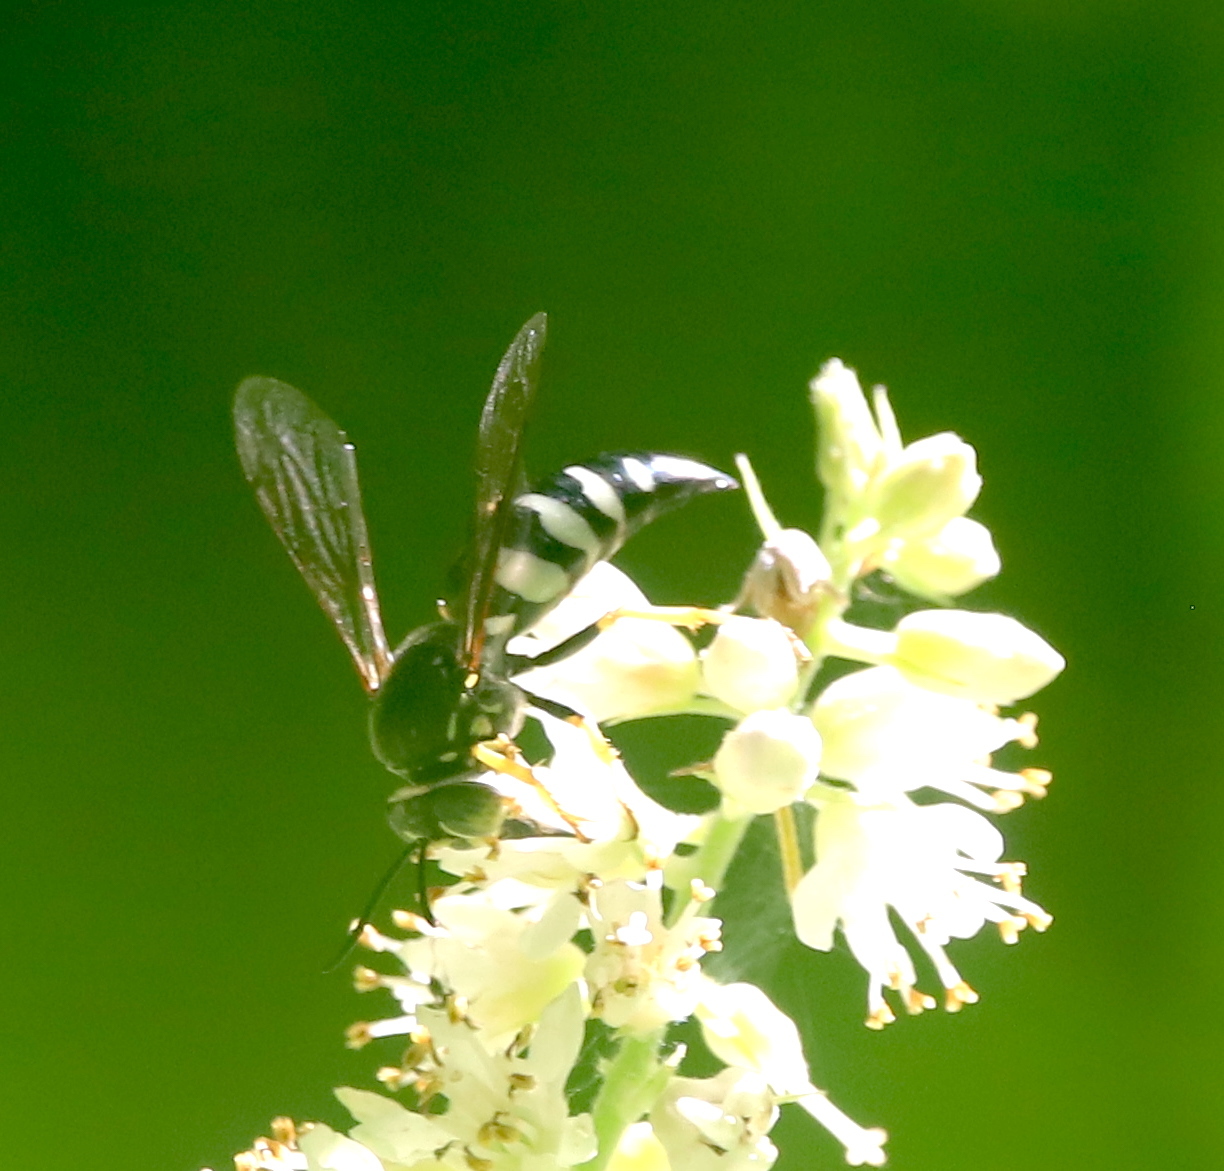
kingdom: Animalia
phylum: Arthropoda
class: Insecta
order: Hymenoptera
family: Crabronidae
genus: Bicyrtes
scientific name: Bicyrtes quadrifasciatus
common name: Four-banded stink bug hunter wasp
